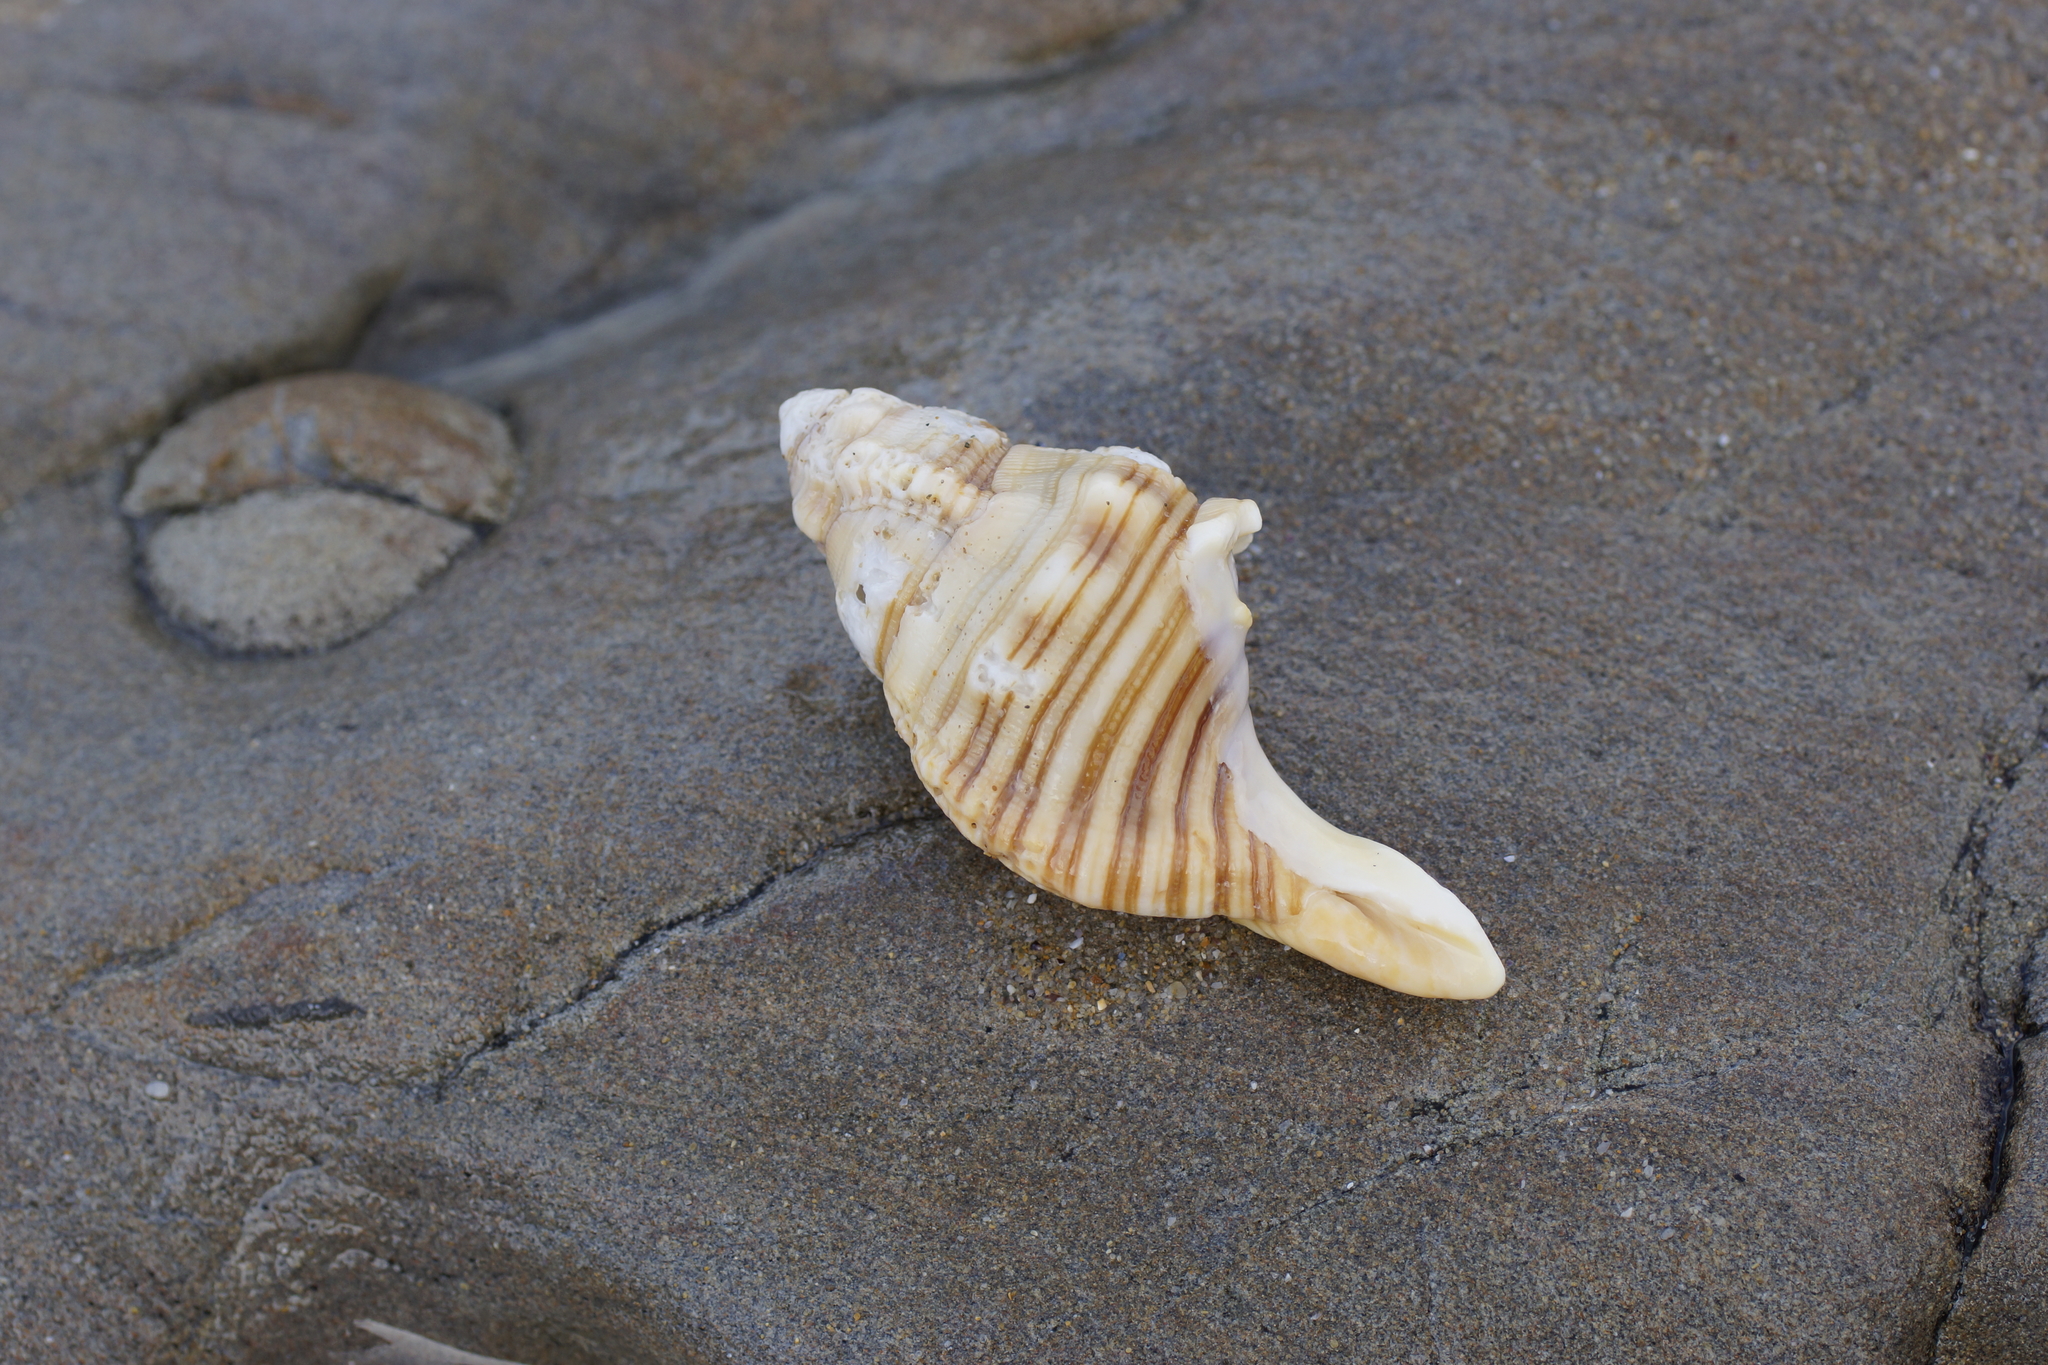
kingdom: Animalia
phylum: Mollusca
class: Gastropoda
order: Littorinimorpha
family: Cymatiidae
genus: Cabestana
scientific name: Cabestana spengleri
